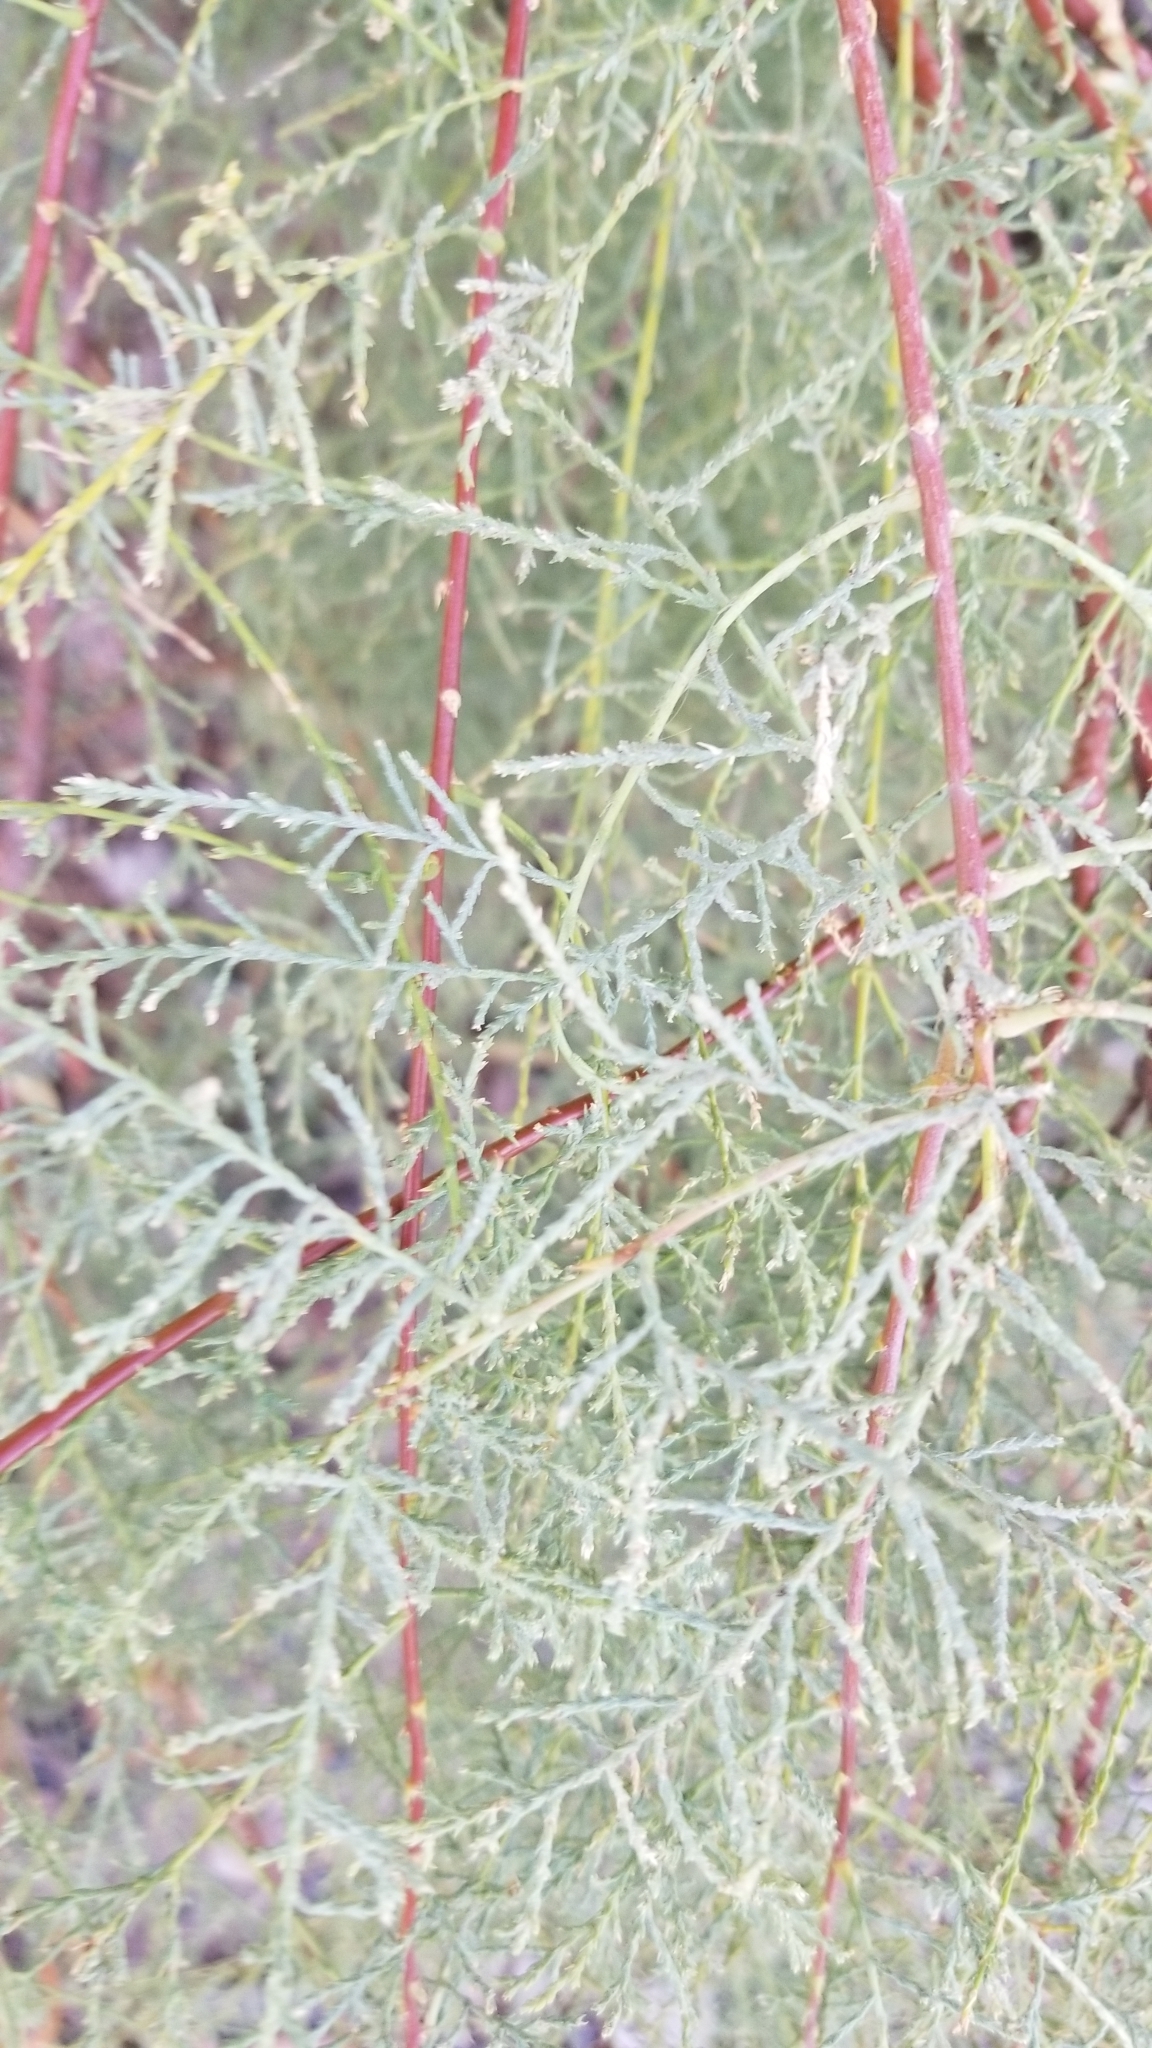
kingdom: Plantae
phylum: Tracheophyta
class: Magnoliopsida
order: Caryophyllales
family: Tamaricaceae
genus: Tamarix
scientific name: Tamarix ramosissima
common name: Pink tamarisk
